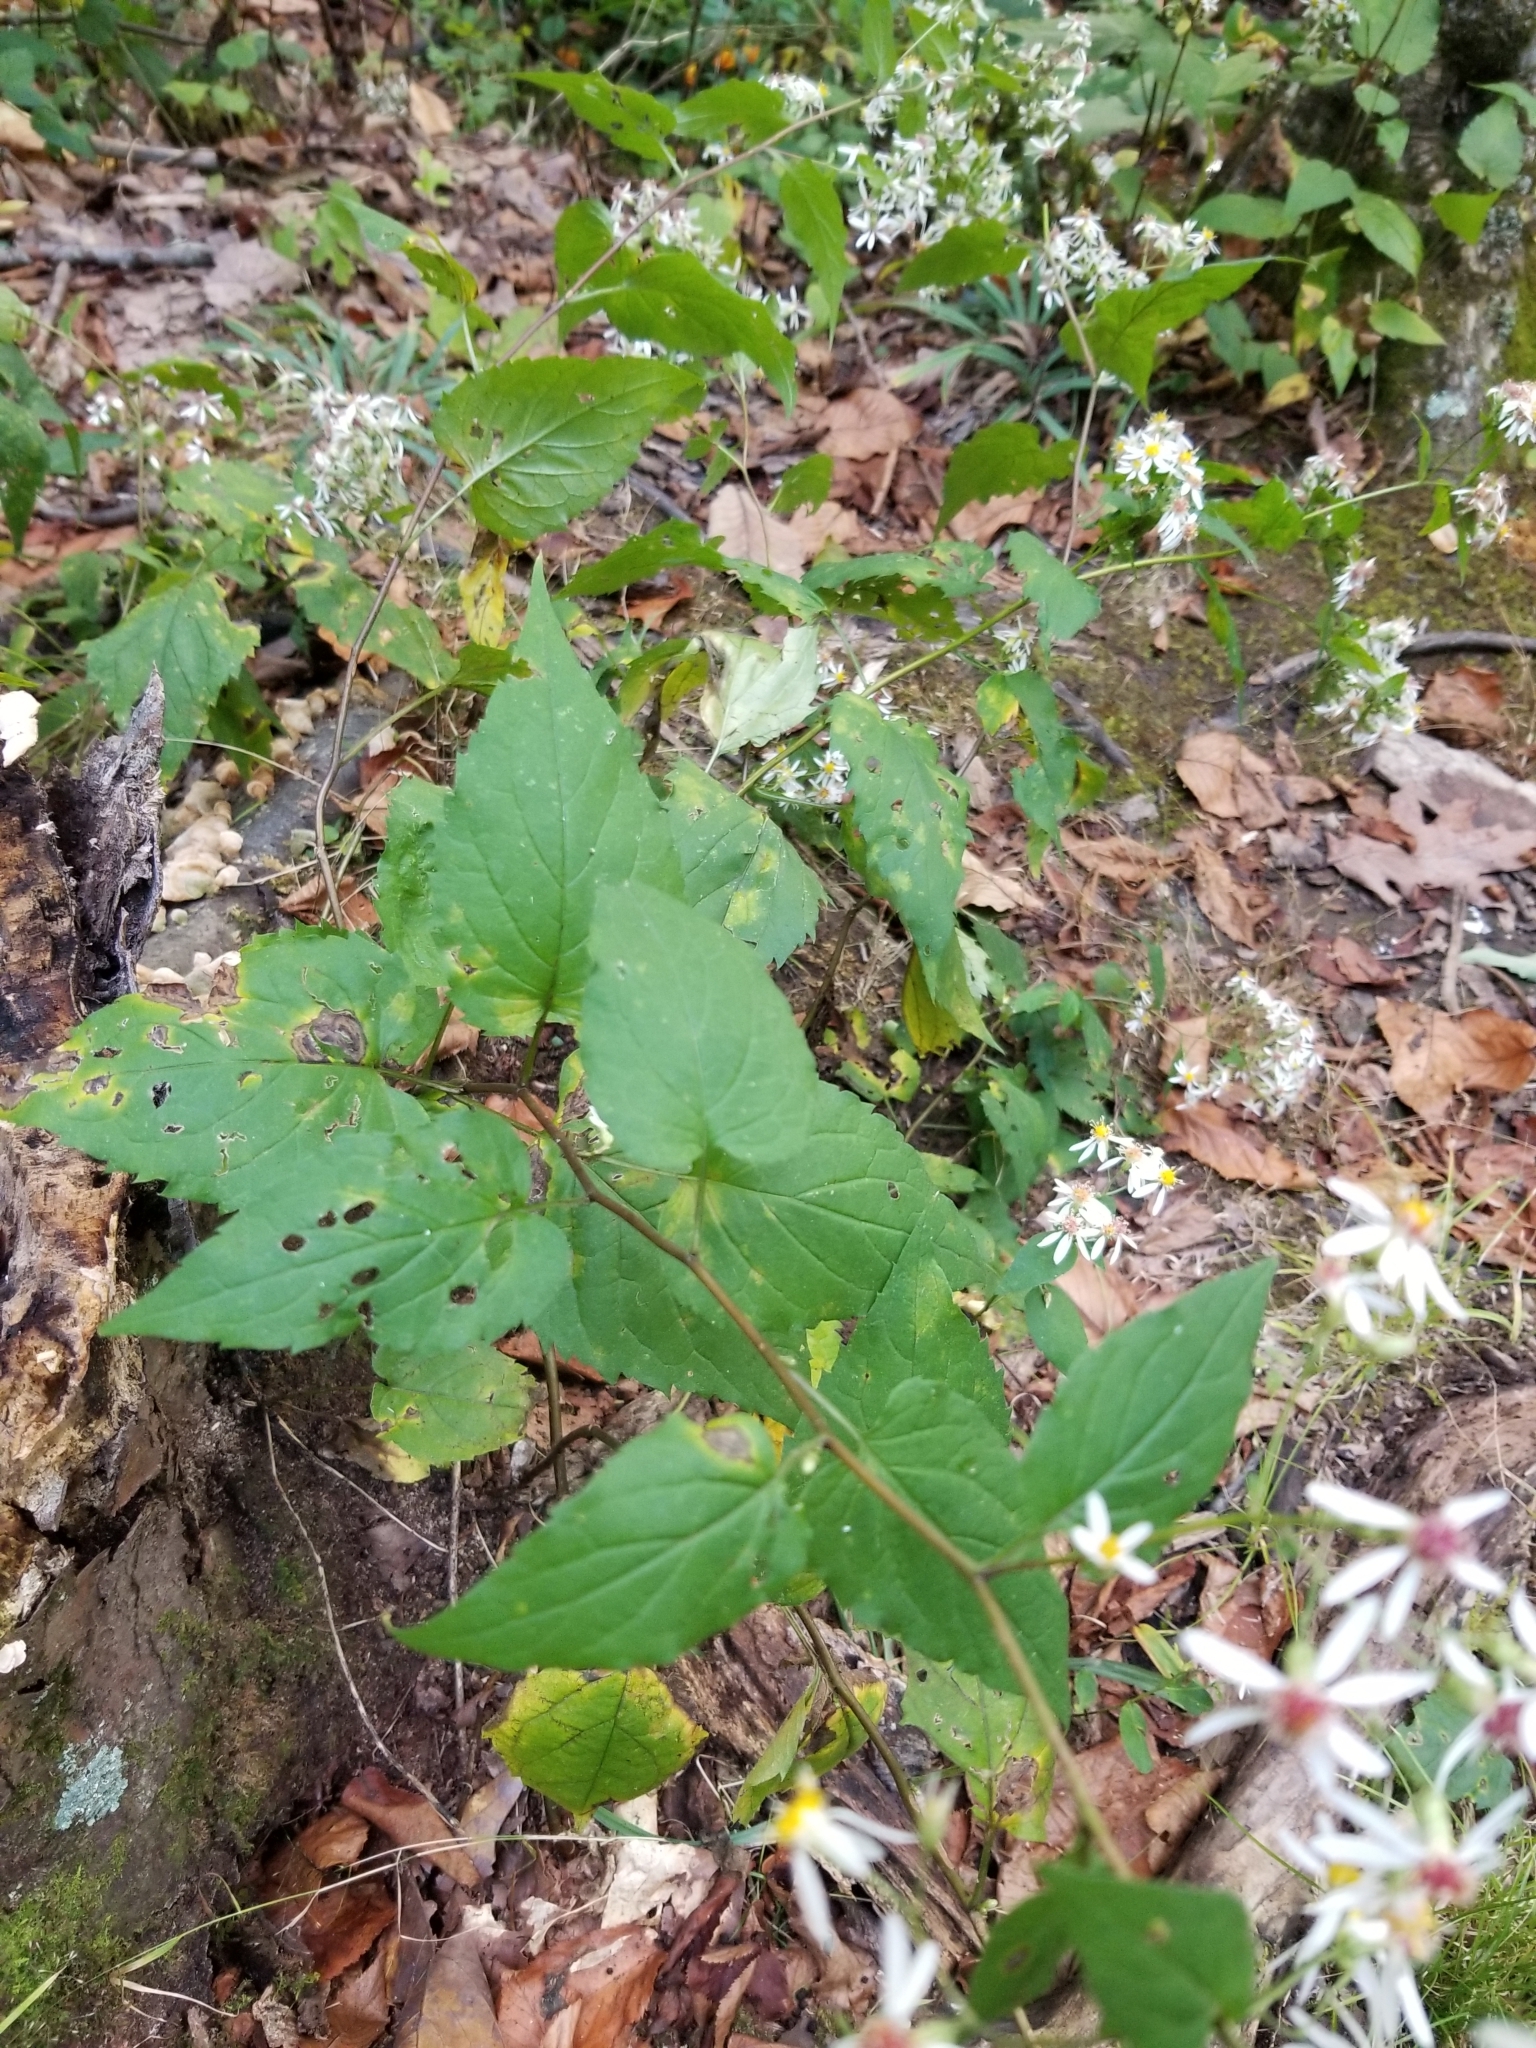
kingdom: Plantae
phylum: Tracheophyta
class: Magnoliopsida
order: Asterales
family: Asteraceae
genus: Eurybia
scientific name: Eurybia divaricata
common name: White wood aster
